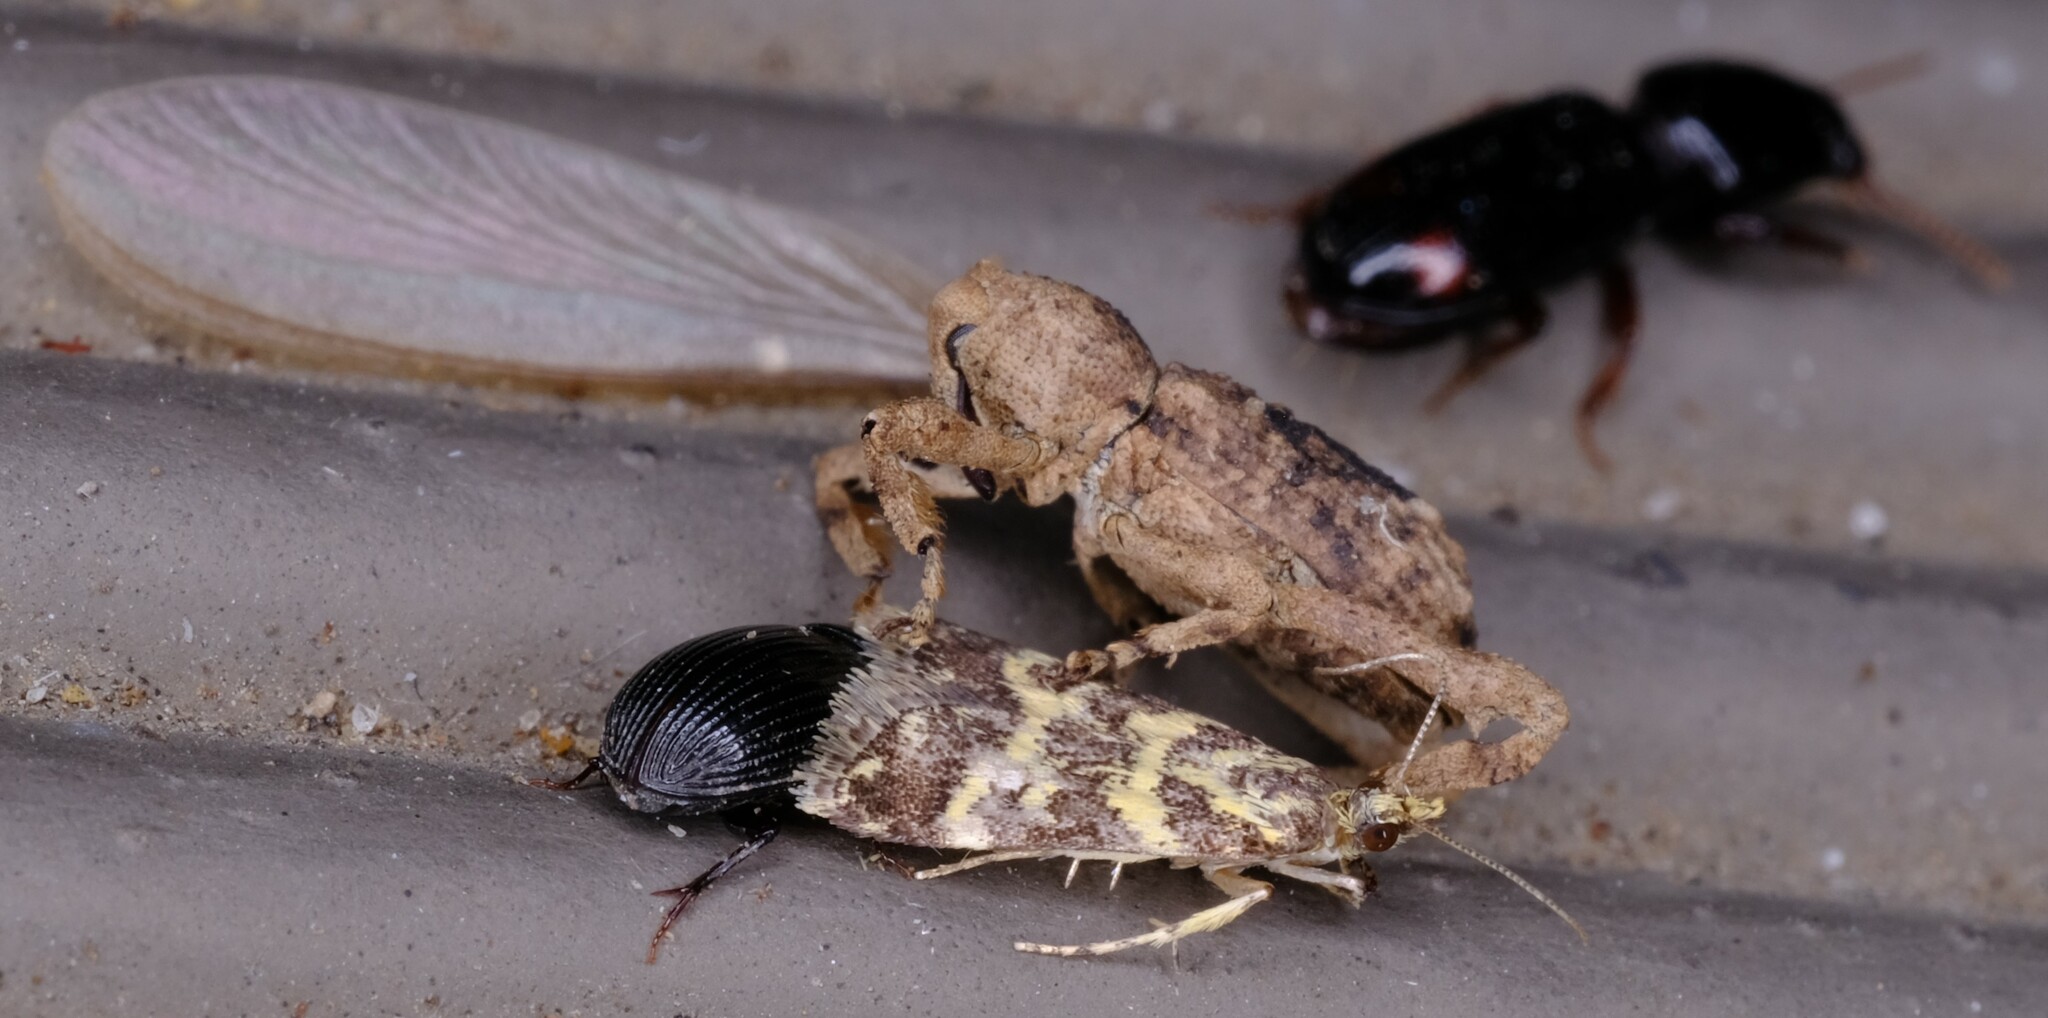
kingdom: Animalia
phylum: Arthropoda
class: Insecta
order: Coleoptera
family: Curculionidae
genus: Camptorhinus
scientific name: Camptorhinus dorsalis
